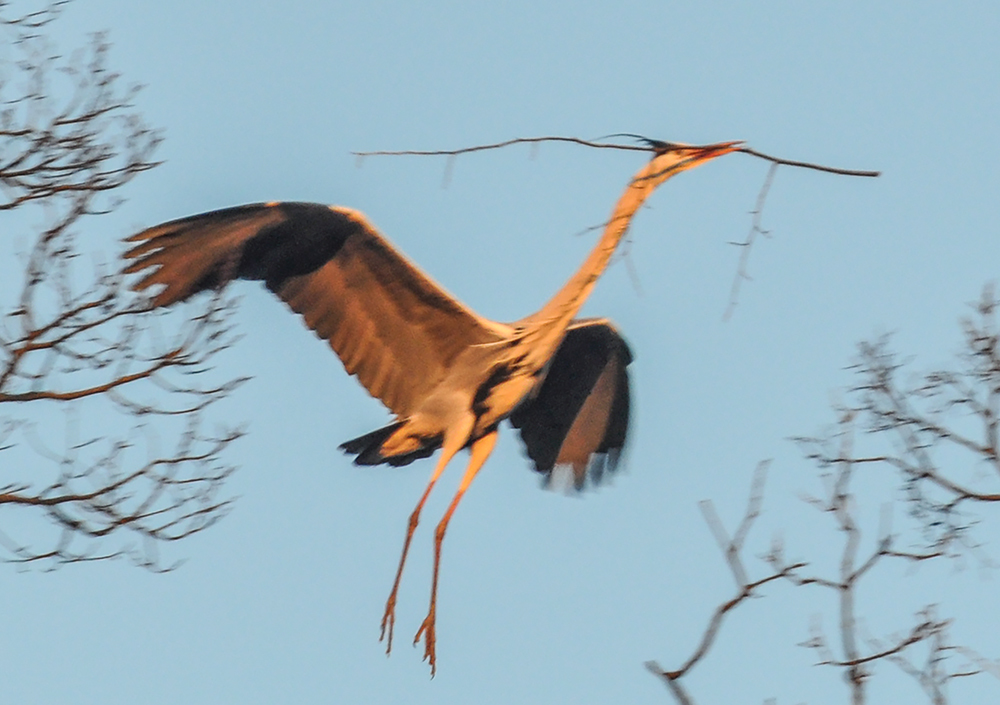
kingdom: Animalia
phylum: Chordata
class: Aves
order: Pelecaniformes
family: Ardeidae
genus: Ardea
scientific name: Ardea cinerea
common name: Grey heron
